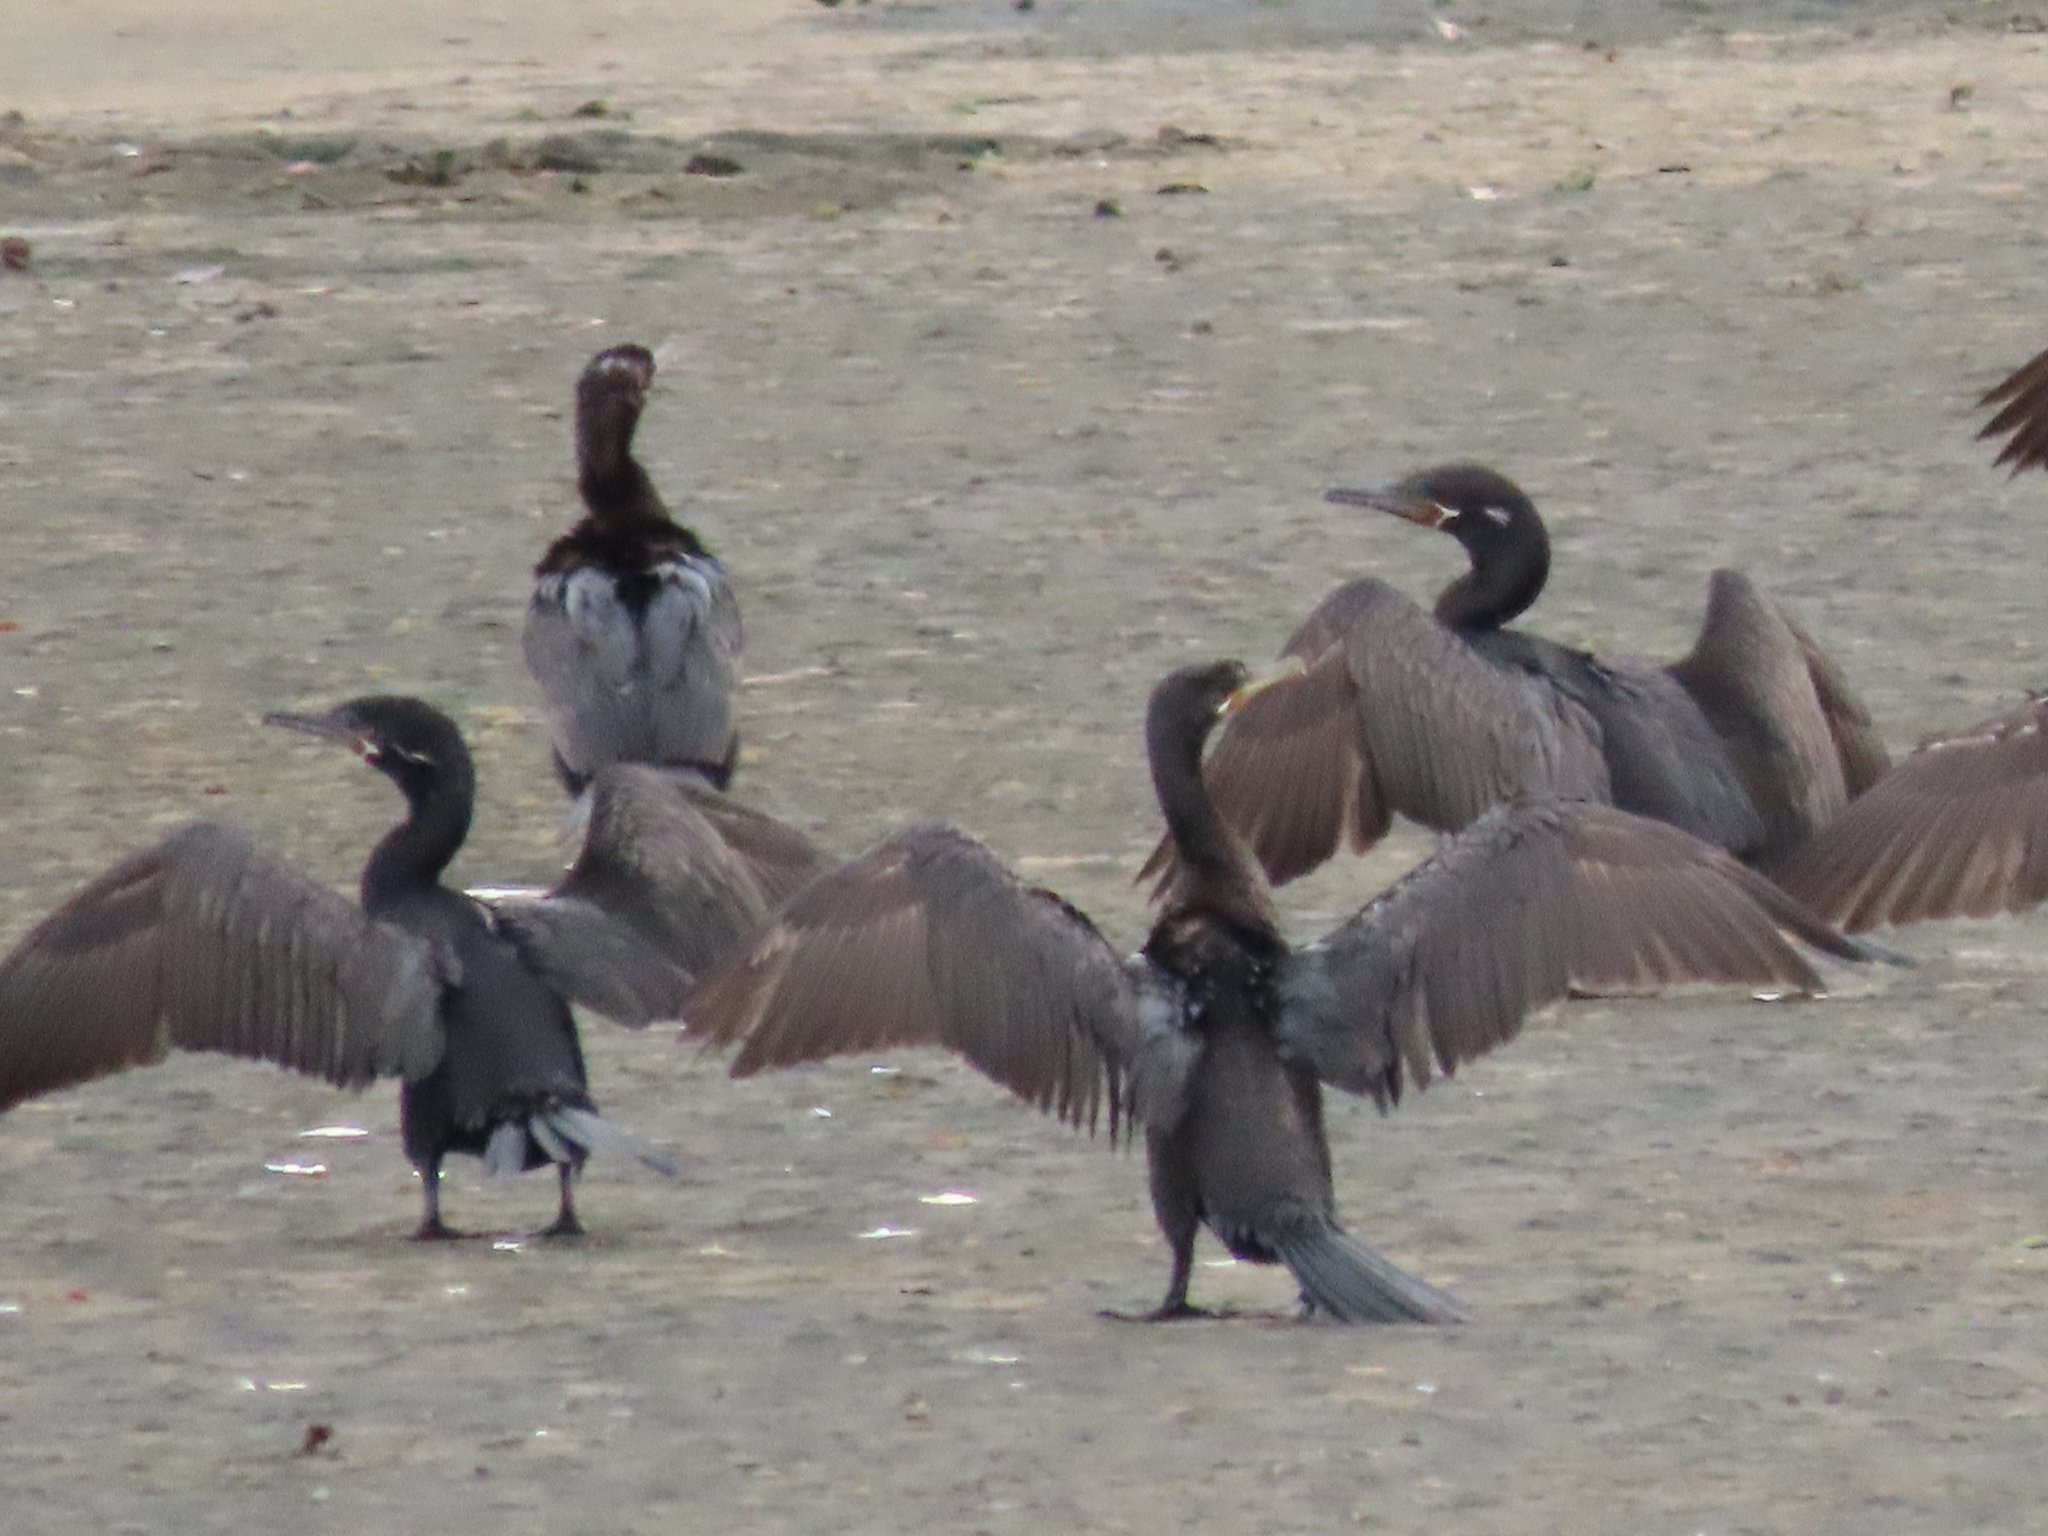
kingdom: Animalia
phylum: Chordata
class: Aves
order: Suliformes
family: Phalacrocoracidae
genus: Phalacrocorax
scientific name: Phalacrocorax brasilianus
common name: Neotropic cormorant
